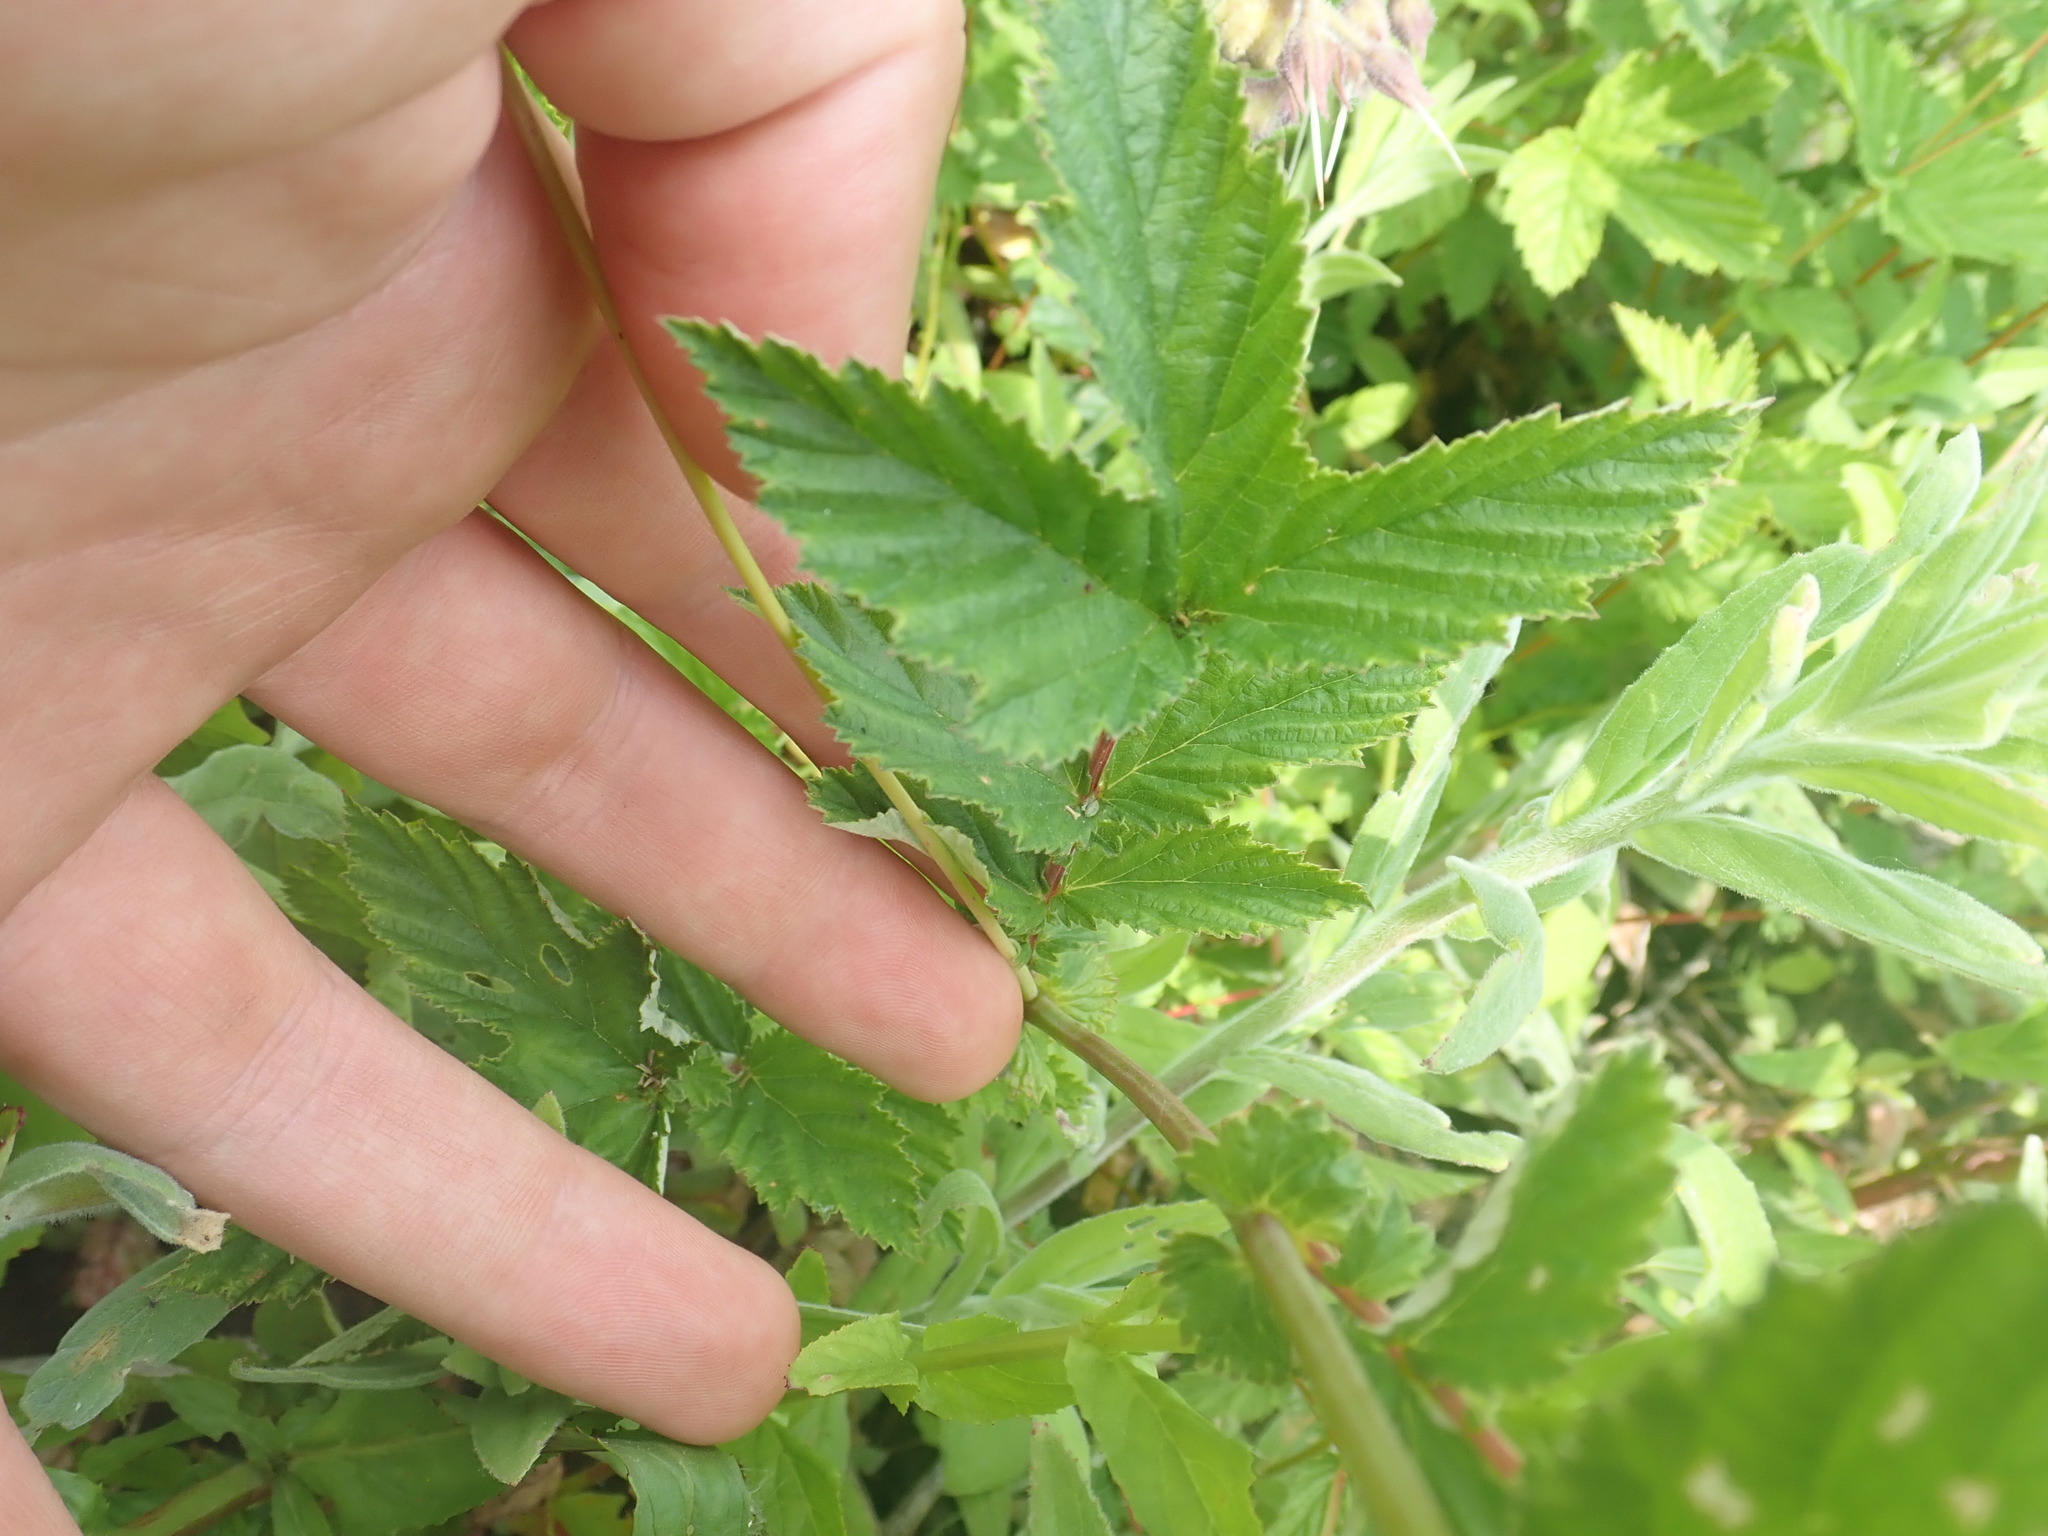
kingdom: Plantae
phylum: Tracheophyta
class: Magnoliopsida
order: Rosales
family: Rosaceae
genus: Filipendula
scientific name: Filipendula ulmaria
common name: Meadowsweet
